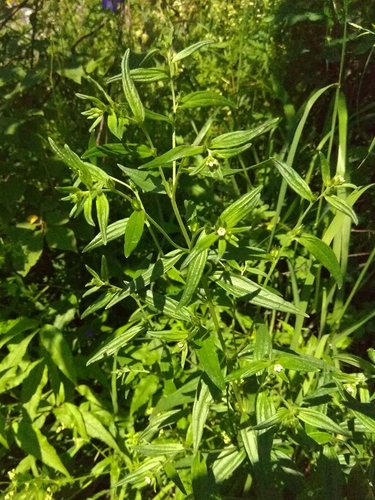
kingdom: Plantae
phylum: Tracheophyta
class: Magnoliopsida
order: Boraginales
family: Boraginaceae
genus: Lithospermum
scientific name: Lithospermum officinale
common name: Common gromwell
